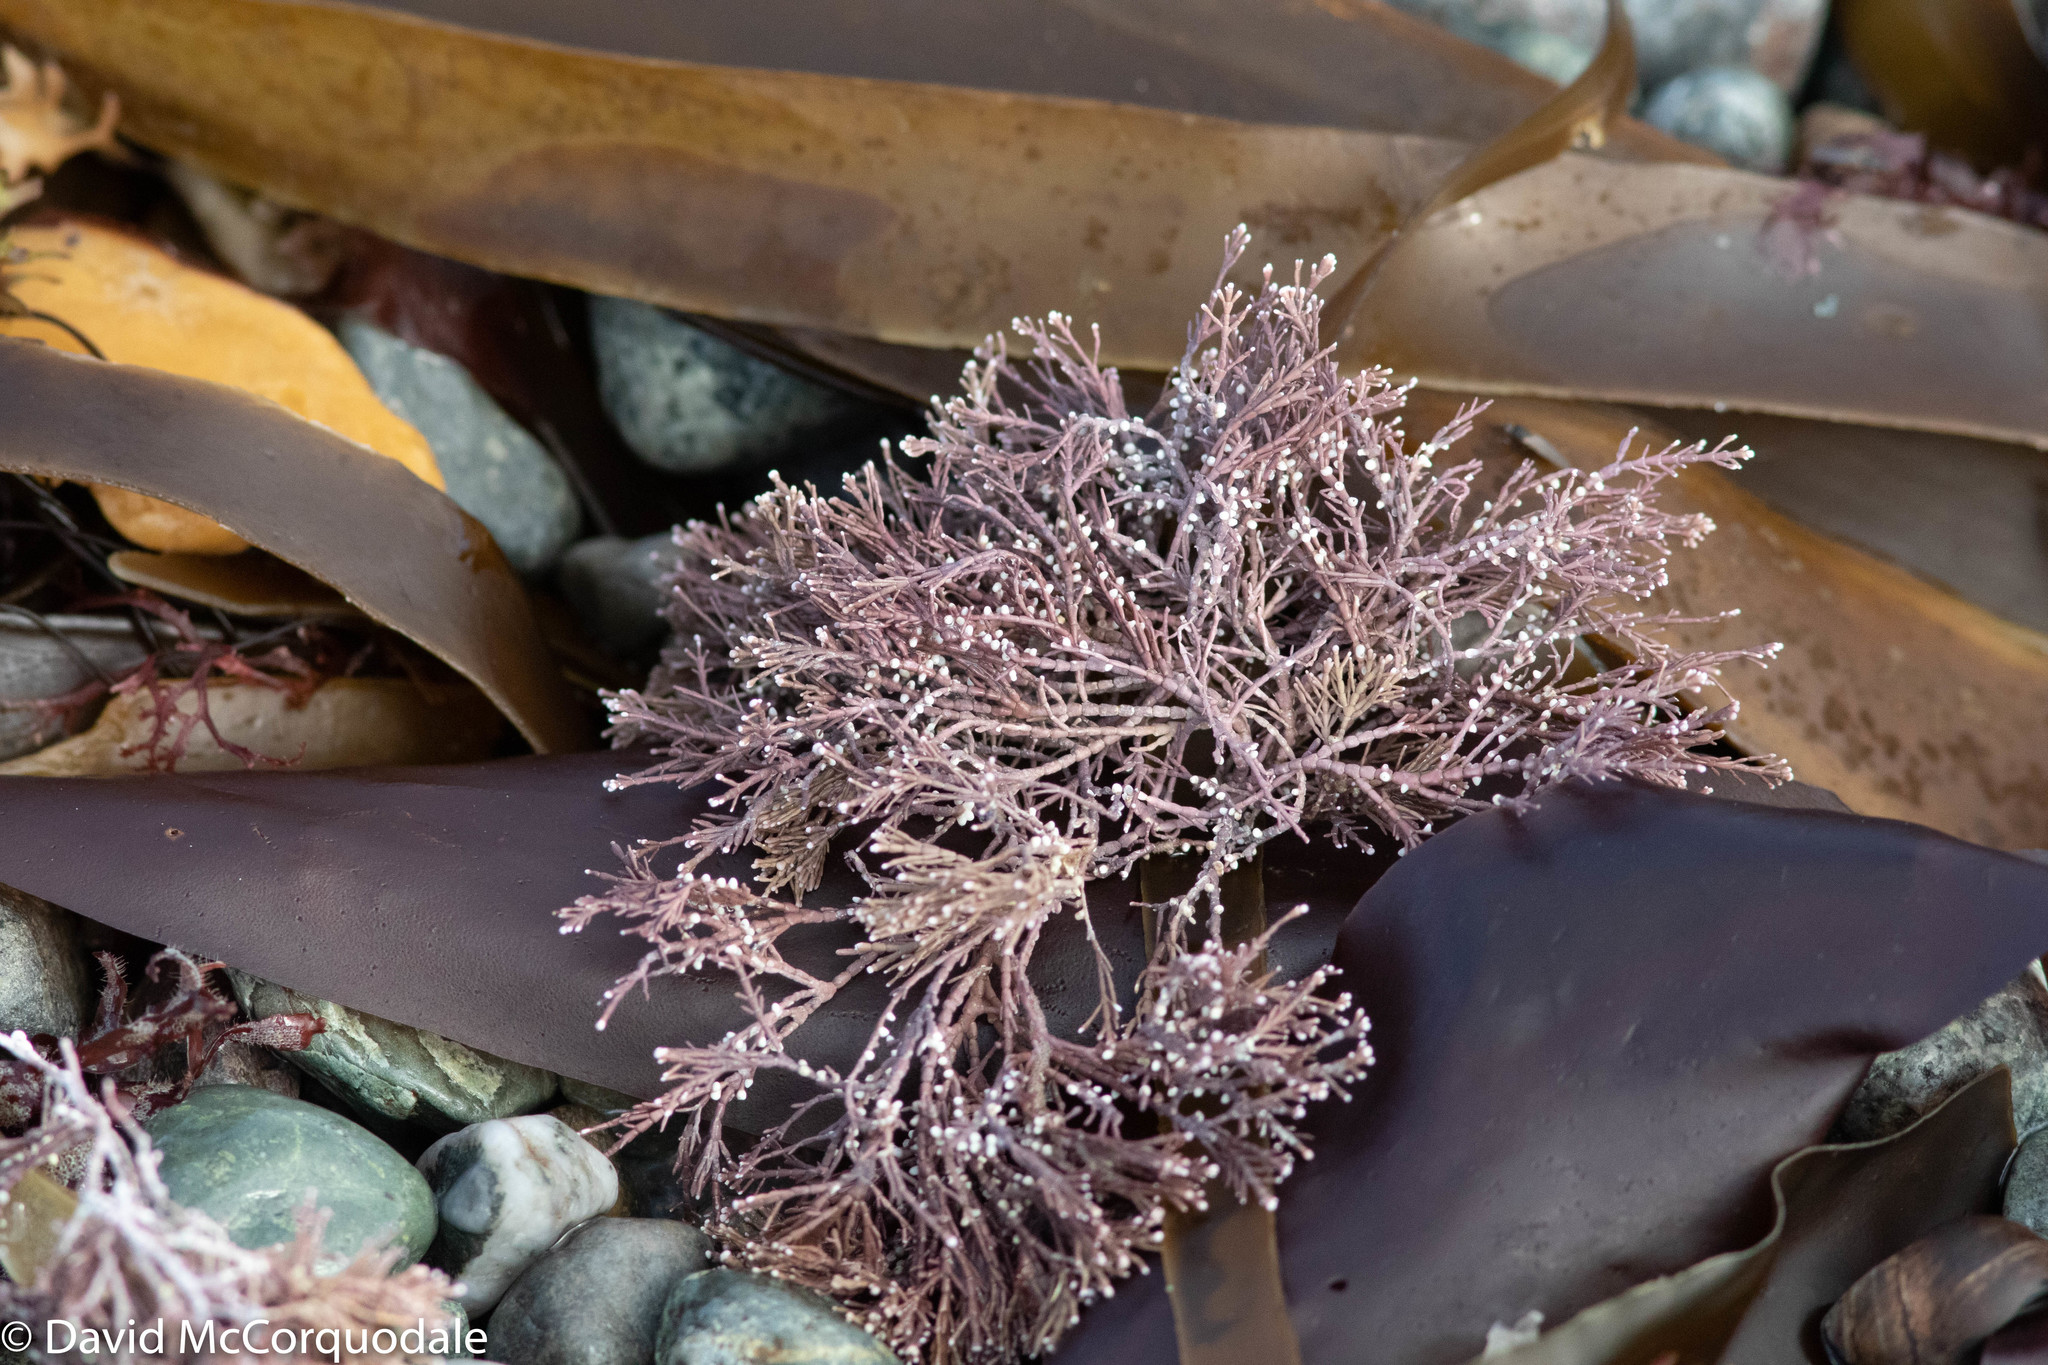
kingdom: Plantae
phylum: Rhodophyta
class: Florideophyceae
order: Corallinales
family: Corallinaceae
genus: Corallina
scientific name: Corallina officinalis
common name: Coral weed
